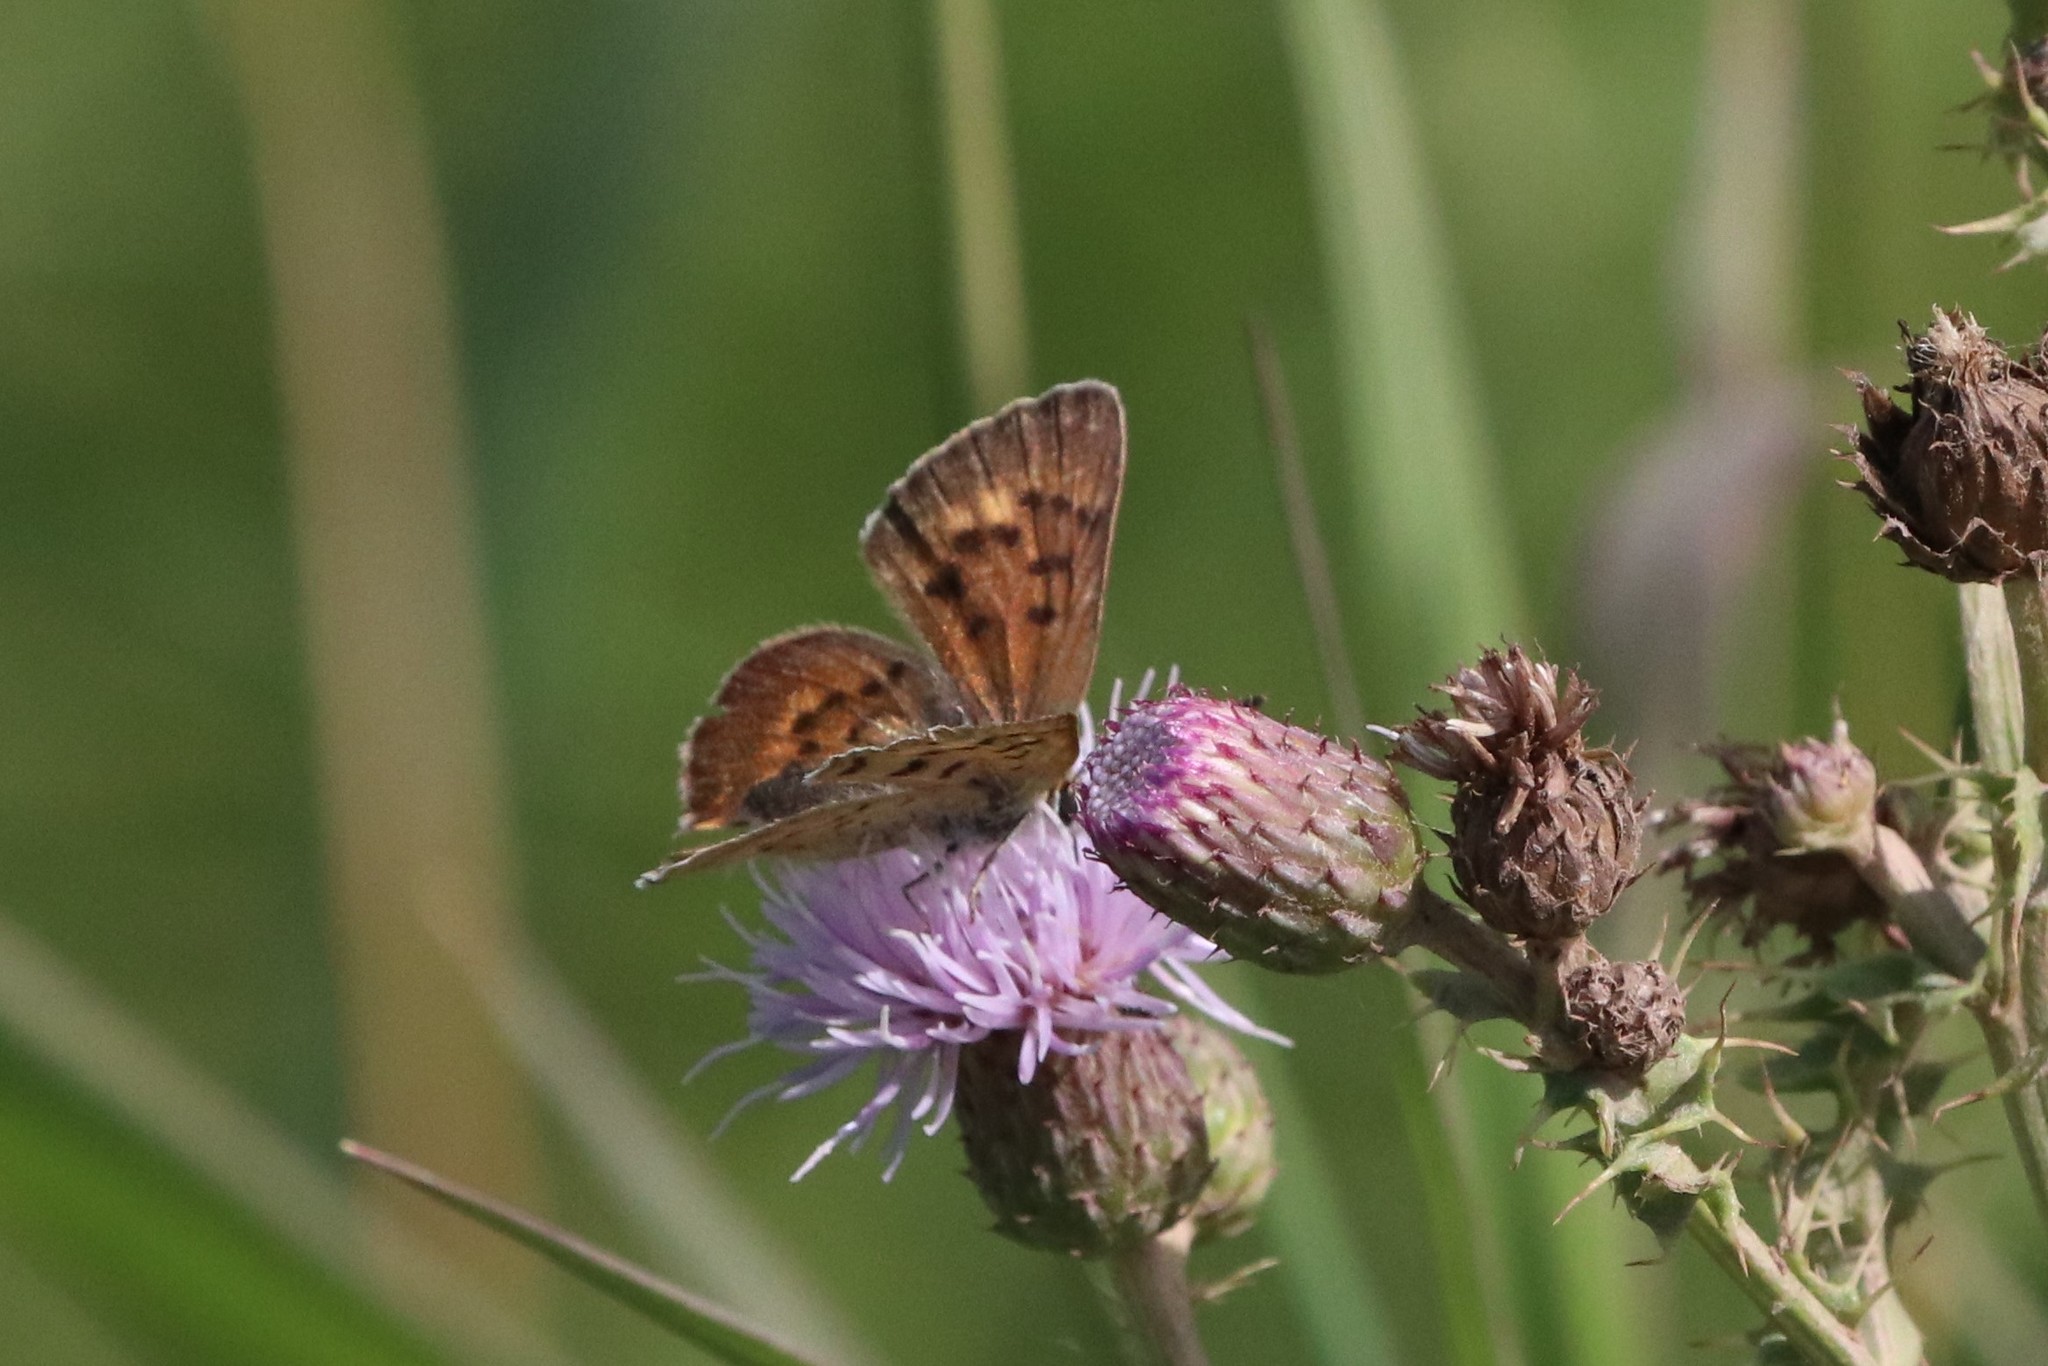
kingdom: Animalia
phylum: Arthropoda
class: Insecta
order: Lepidoptera
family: Lycaenidae
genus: Tharsalea
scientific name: Tharsalea dospassosi
